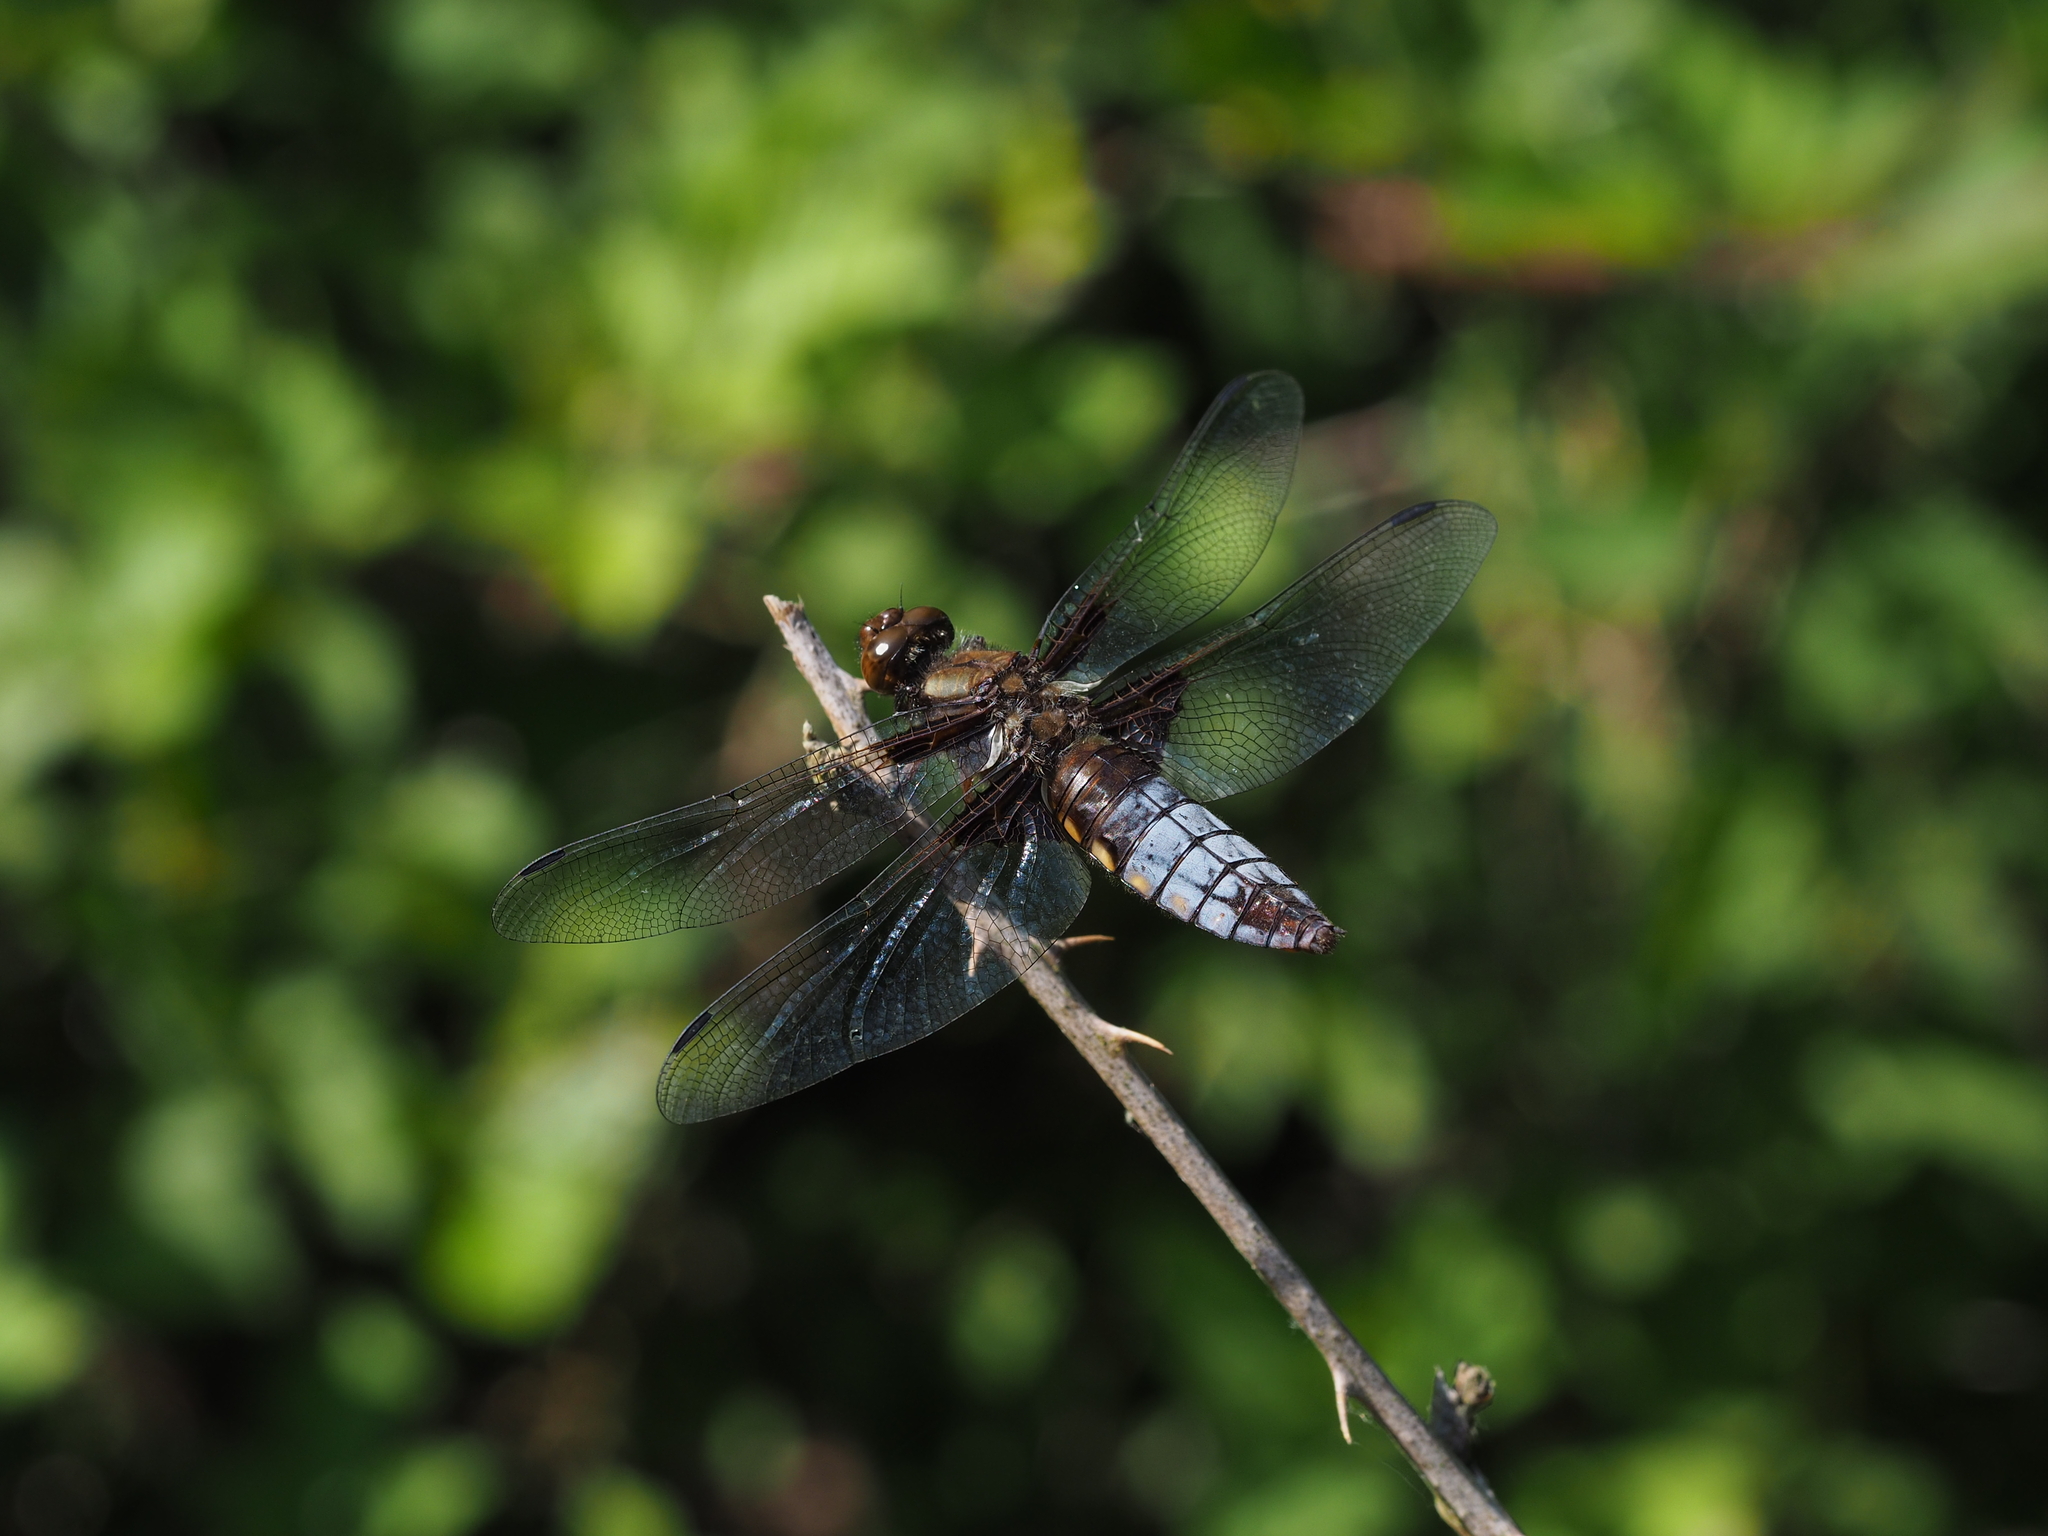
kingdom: Animalia
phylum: Arthropoda
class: Insecta
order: Odonata
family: Libellulidae
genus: Libellula
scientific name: Libellula depressa
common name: Broad-bodied chaser
